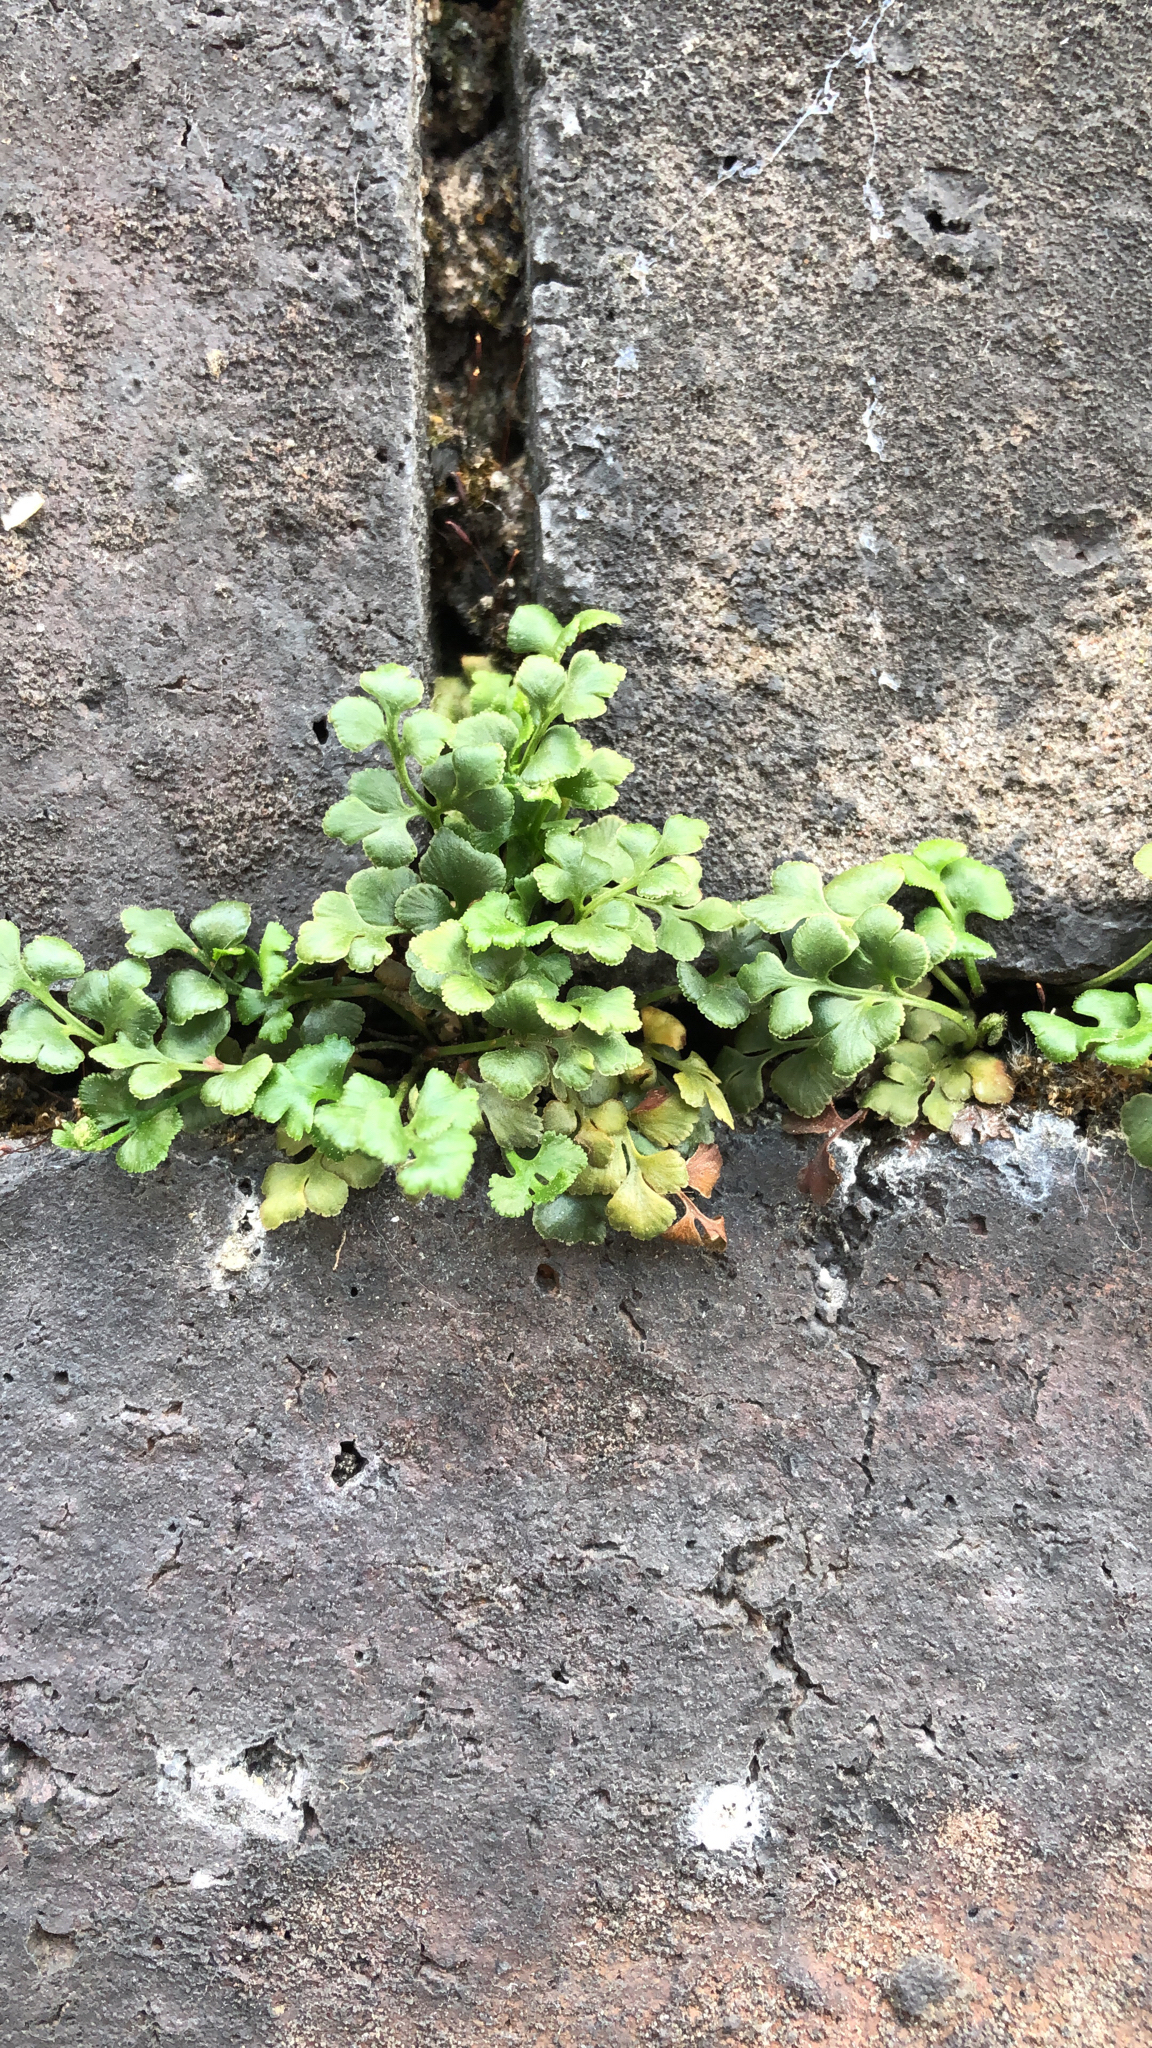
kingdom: Plantae
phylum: Tracheophyta
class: Polypodiopsida
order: Polypodiales
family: Aspleniaceae
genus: Asplenium
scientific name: Asplenium ruta-muraria
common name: Wall-rue
